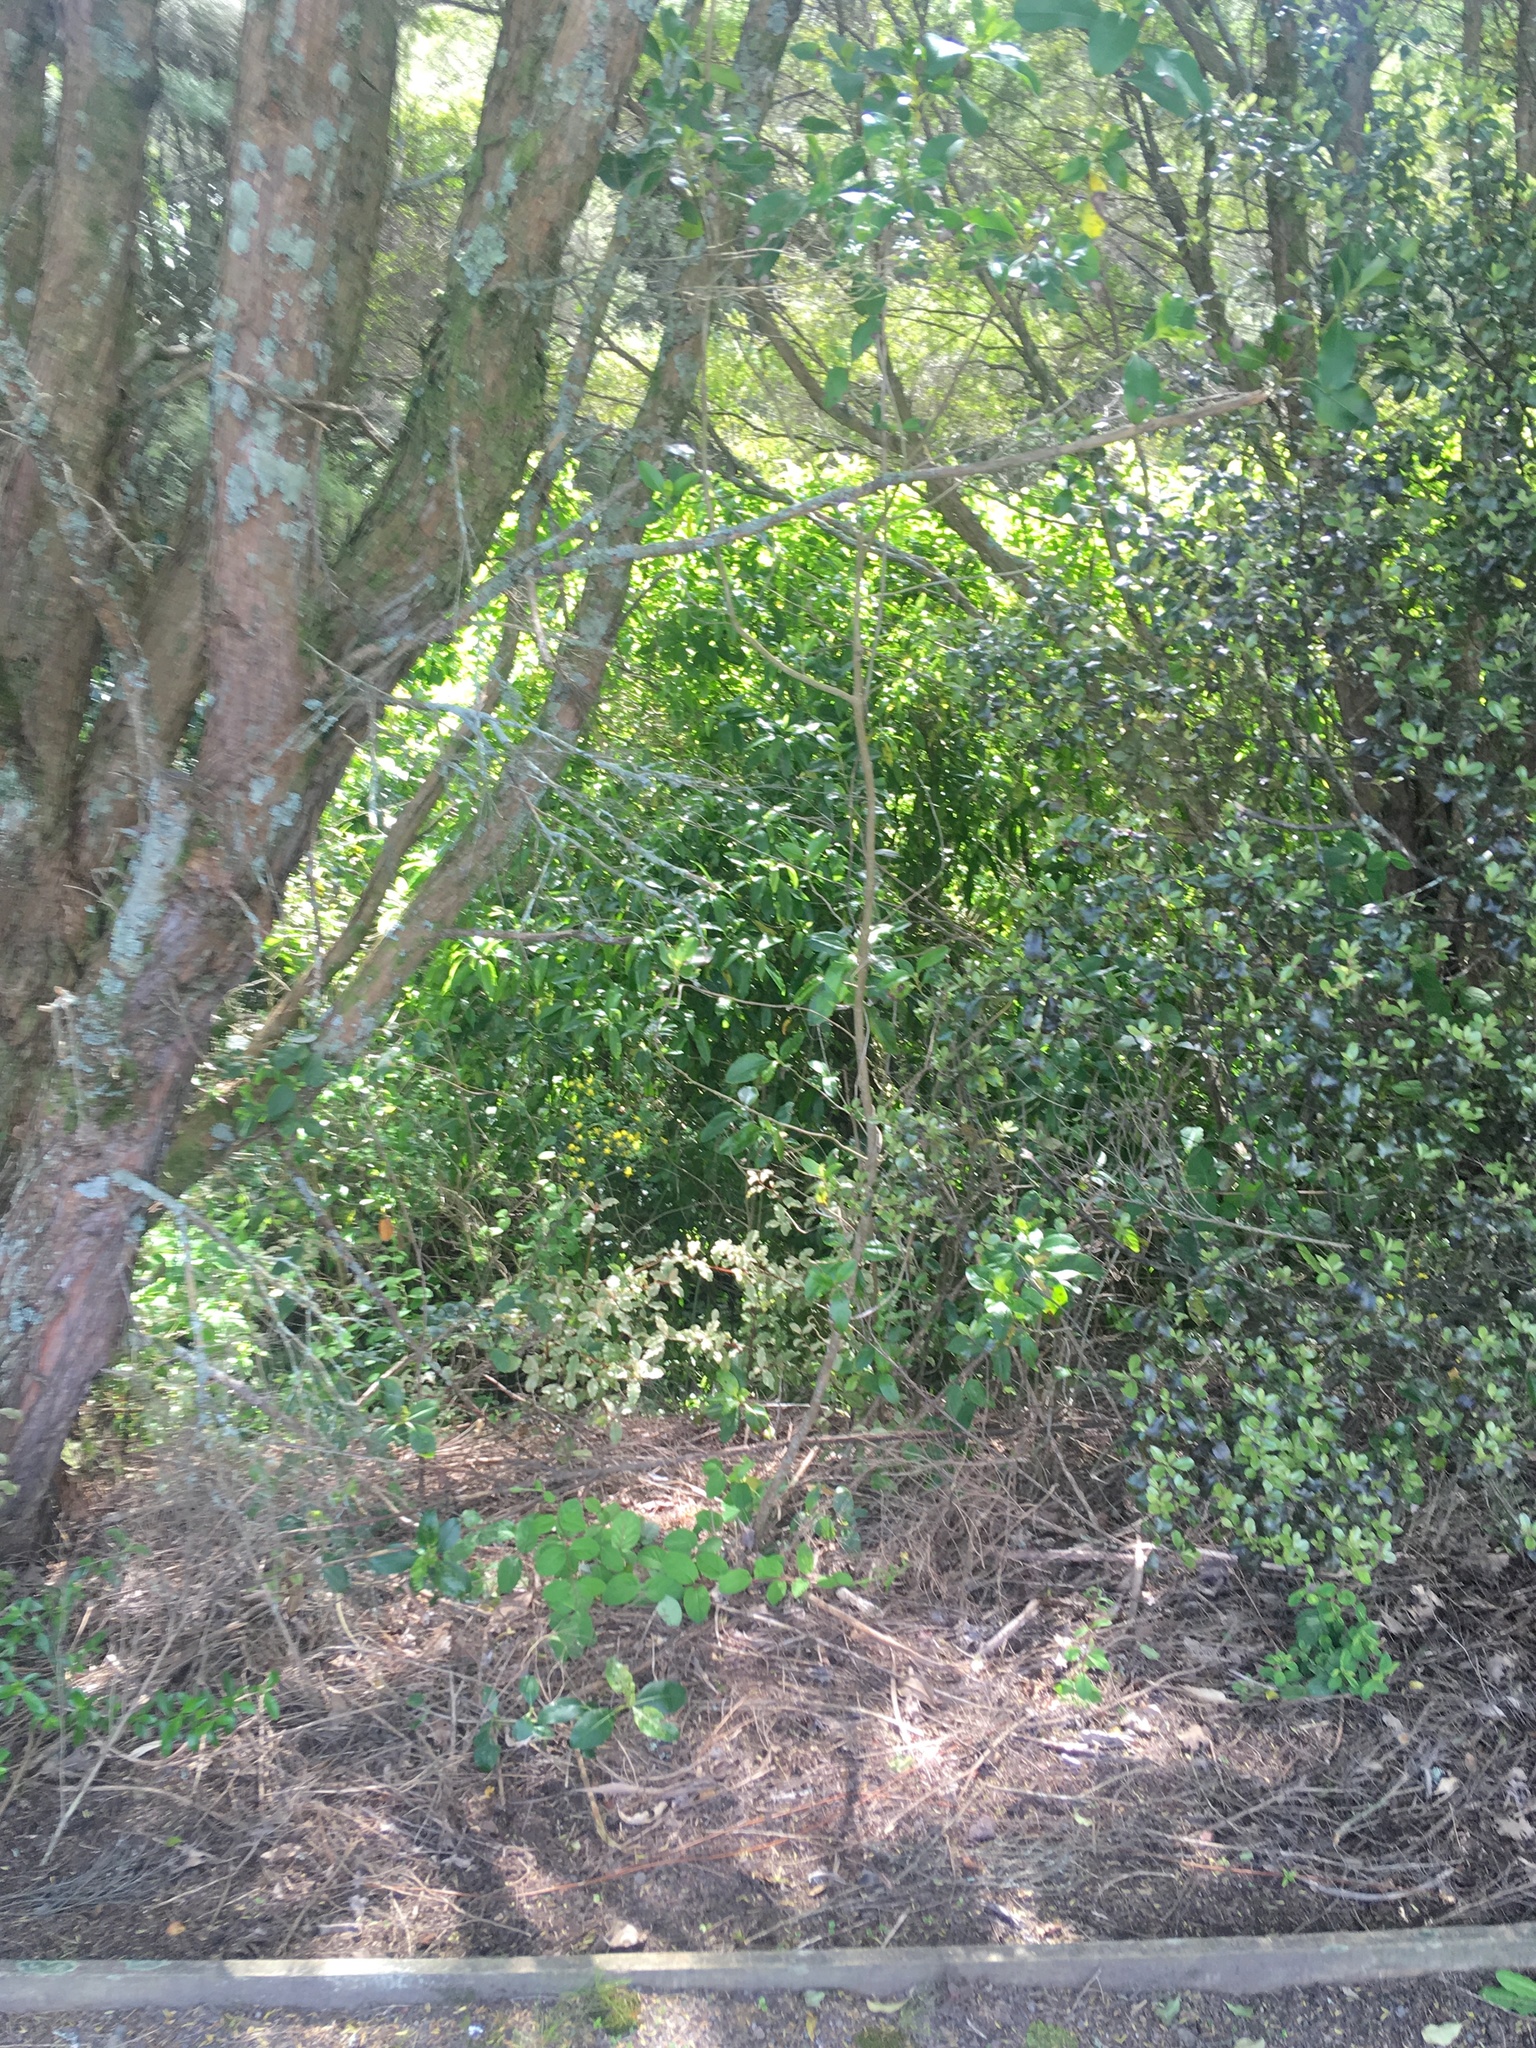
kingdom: Plantae
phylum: Tracheophyta
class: Magnoliopsida
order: Dipsacales
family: Caprifoliaceae
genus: Lonicera
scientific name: Lonicera japonica
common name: Japanese honeysuckle
